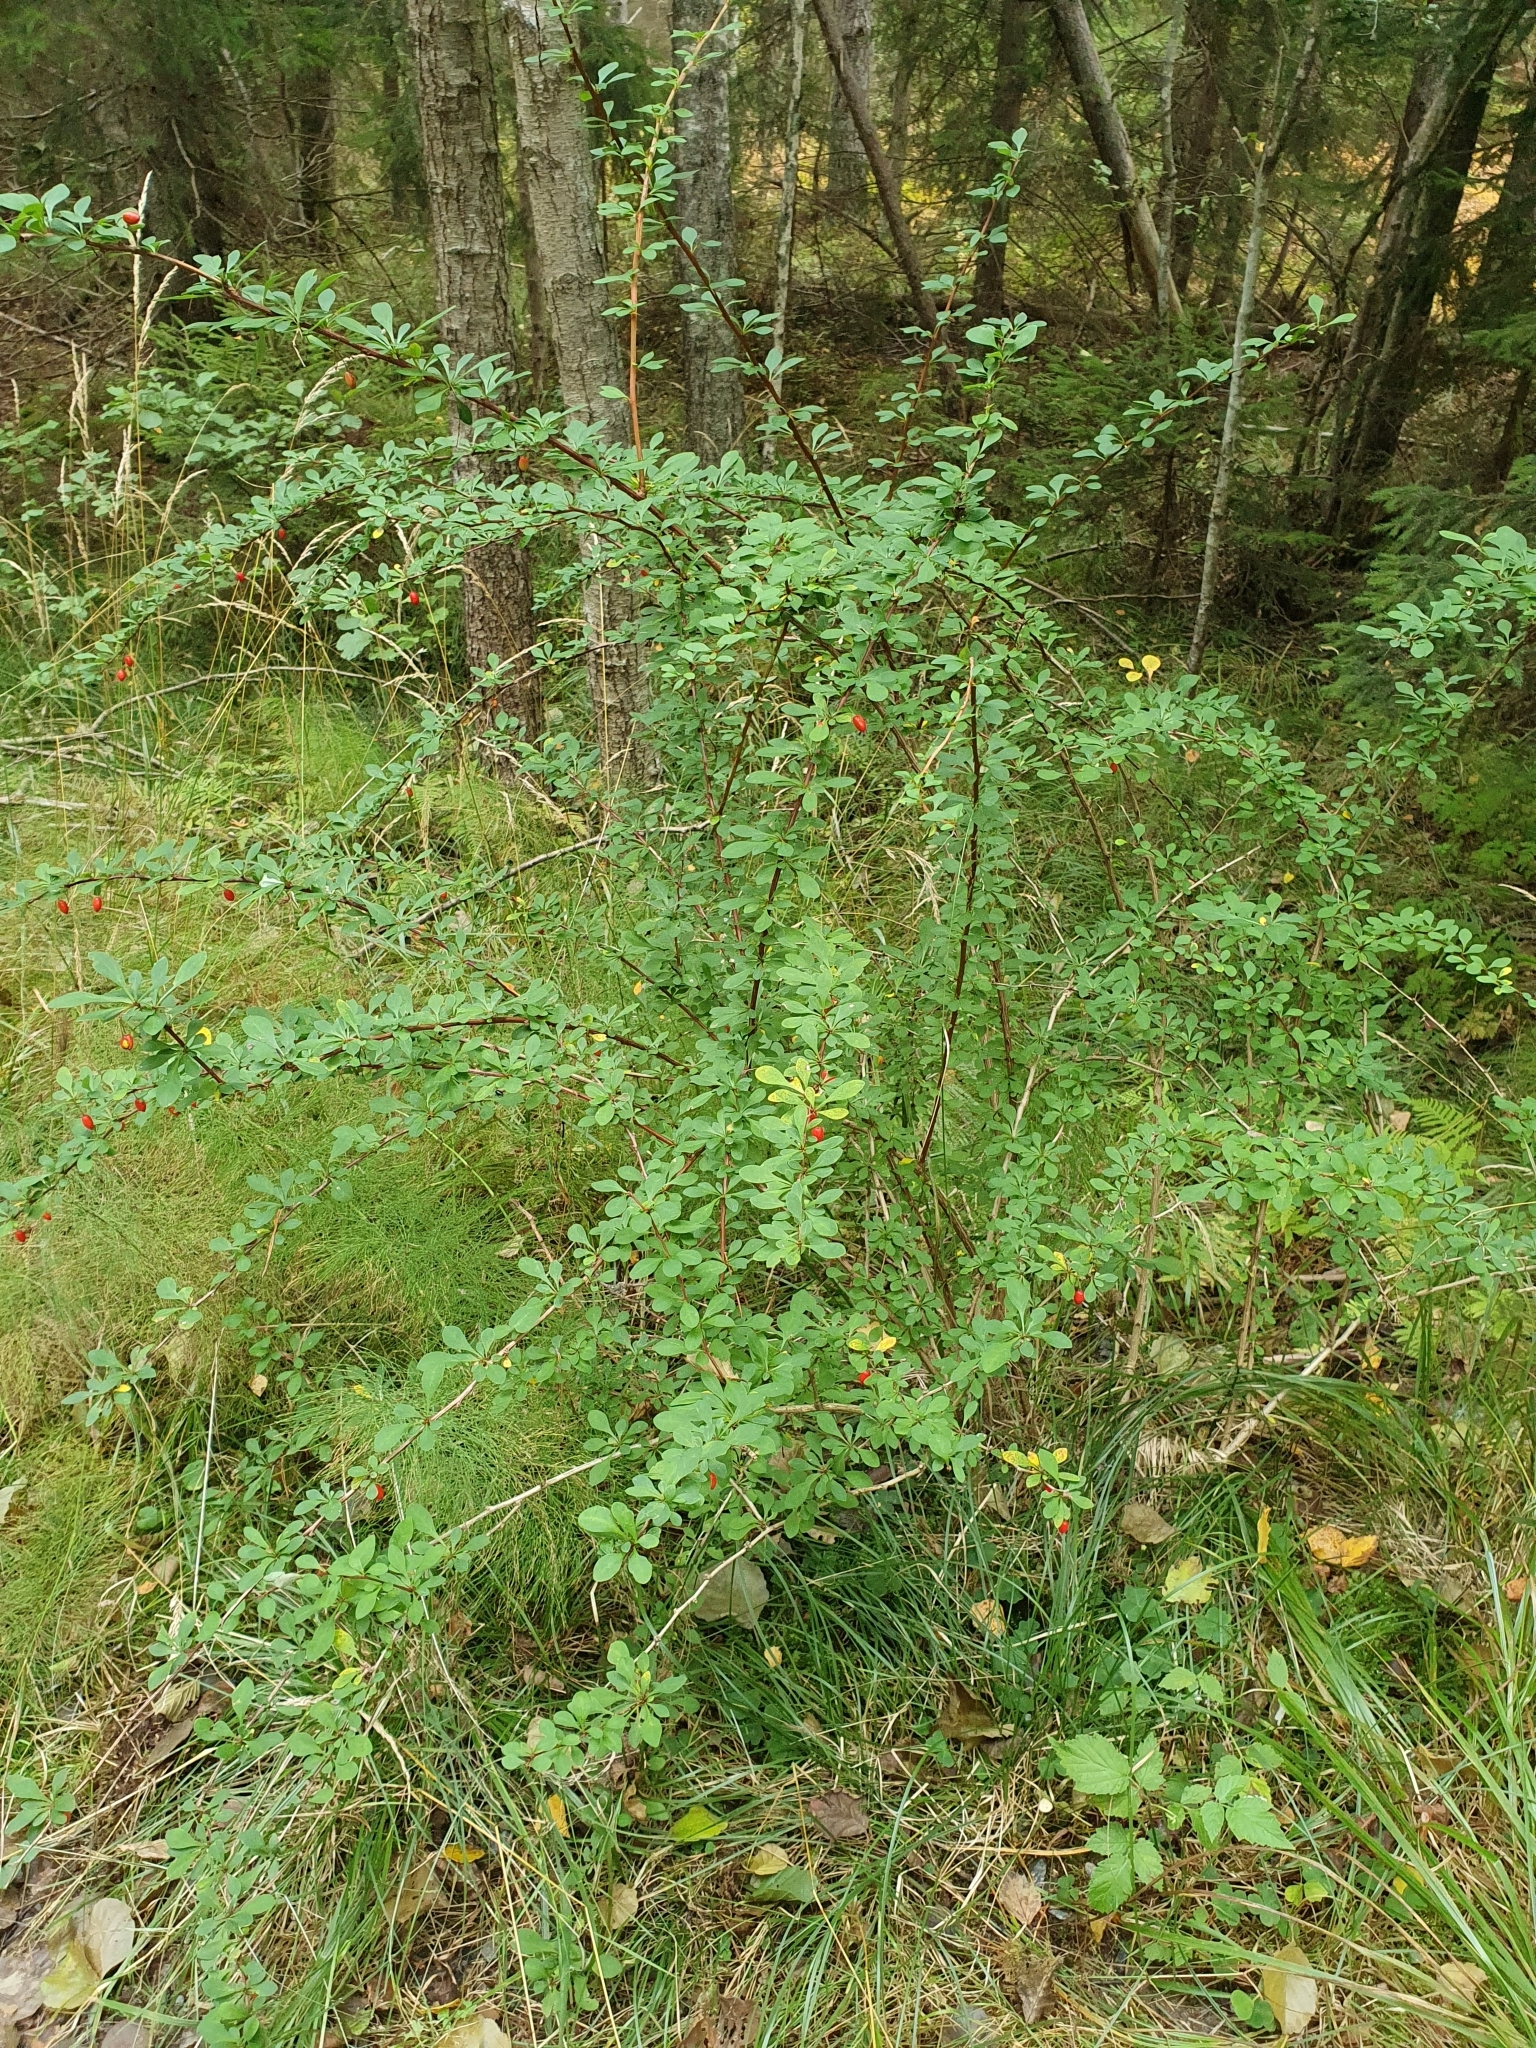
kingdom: Plantae
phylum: Tracheophyta
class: Magnoliopsida
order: Ranunculales
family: Berberidaceae
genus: Berberis
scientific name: Berberis vulgaris
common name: Barberry
